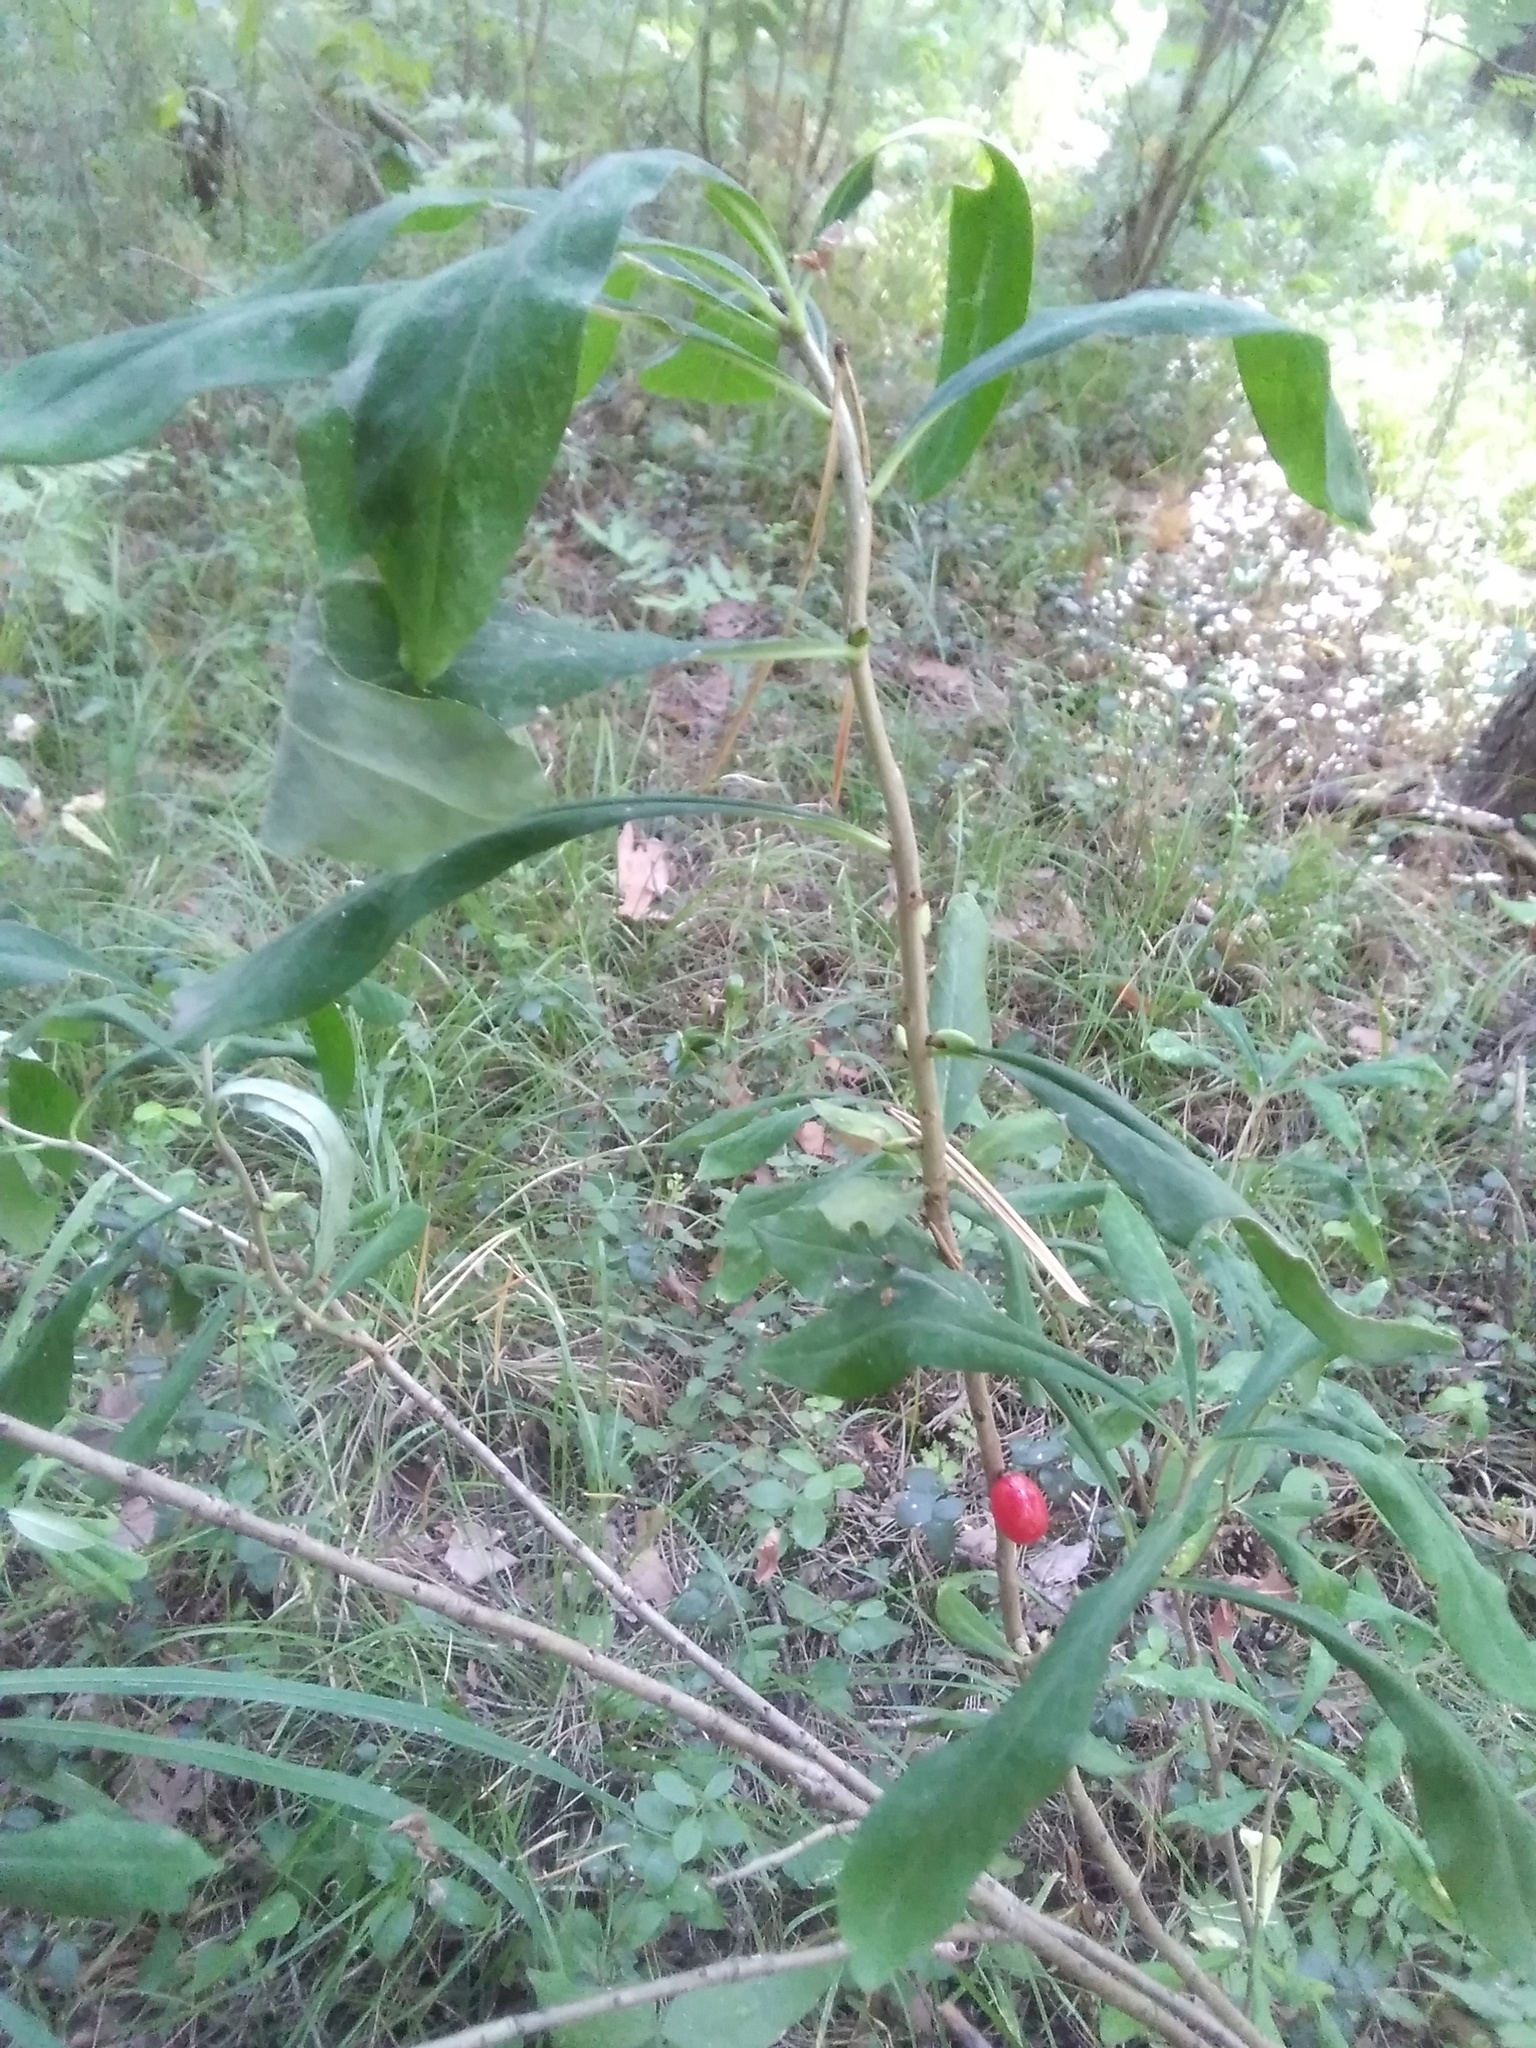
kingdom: Plantae
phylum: Tracheophyta
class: Magnoliopsida
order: Malvales
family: Thymelaeaceae
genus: Daphne
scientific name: Daphne mezereum
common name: Mezereon
